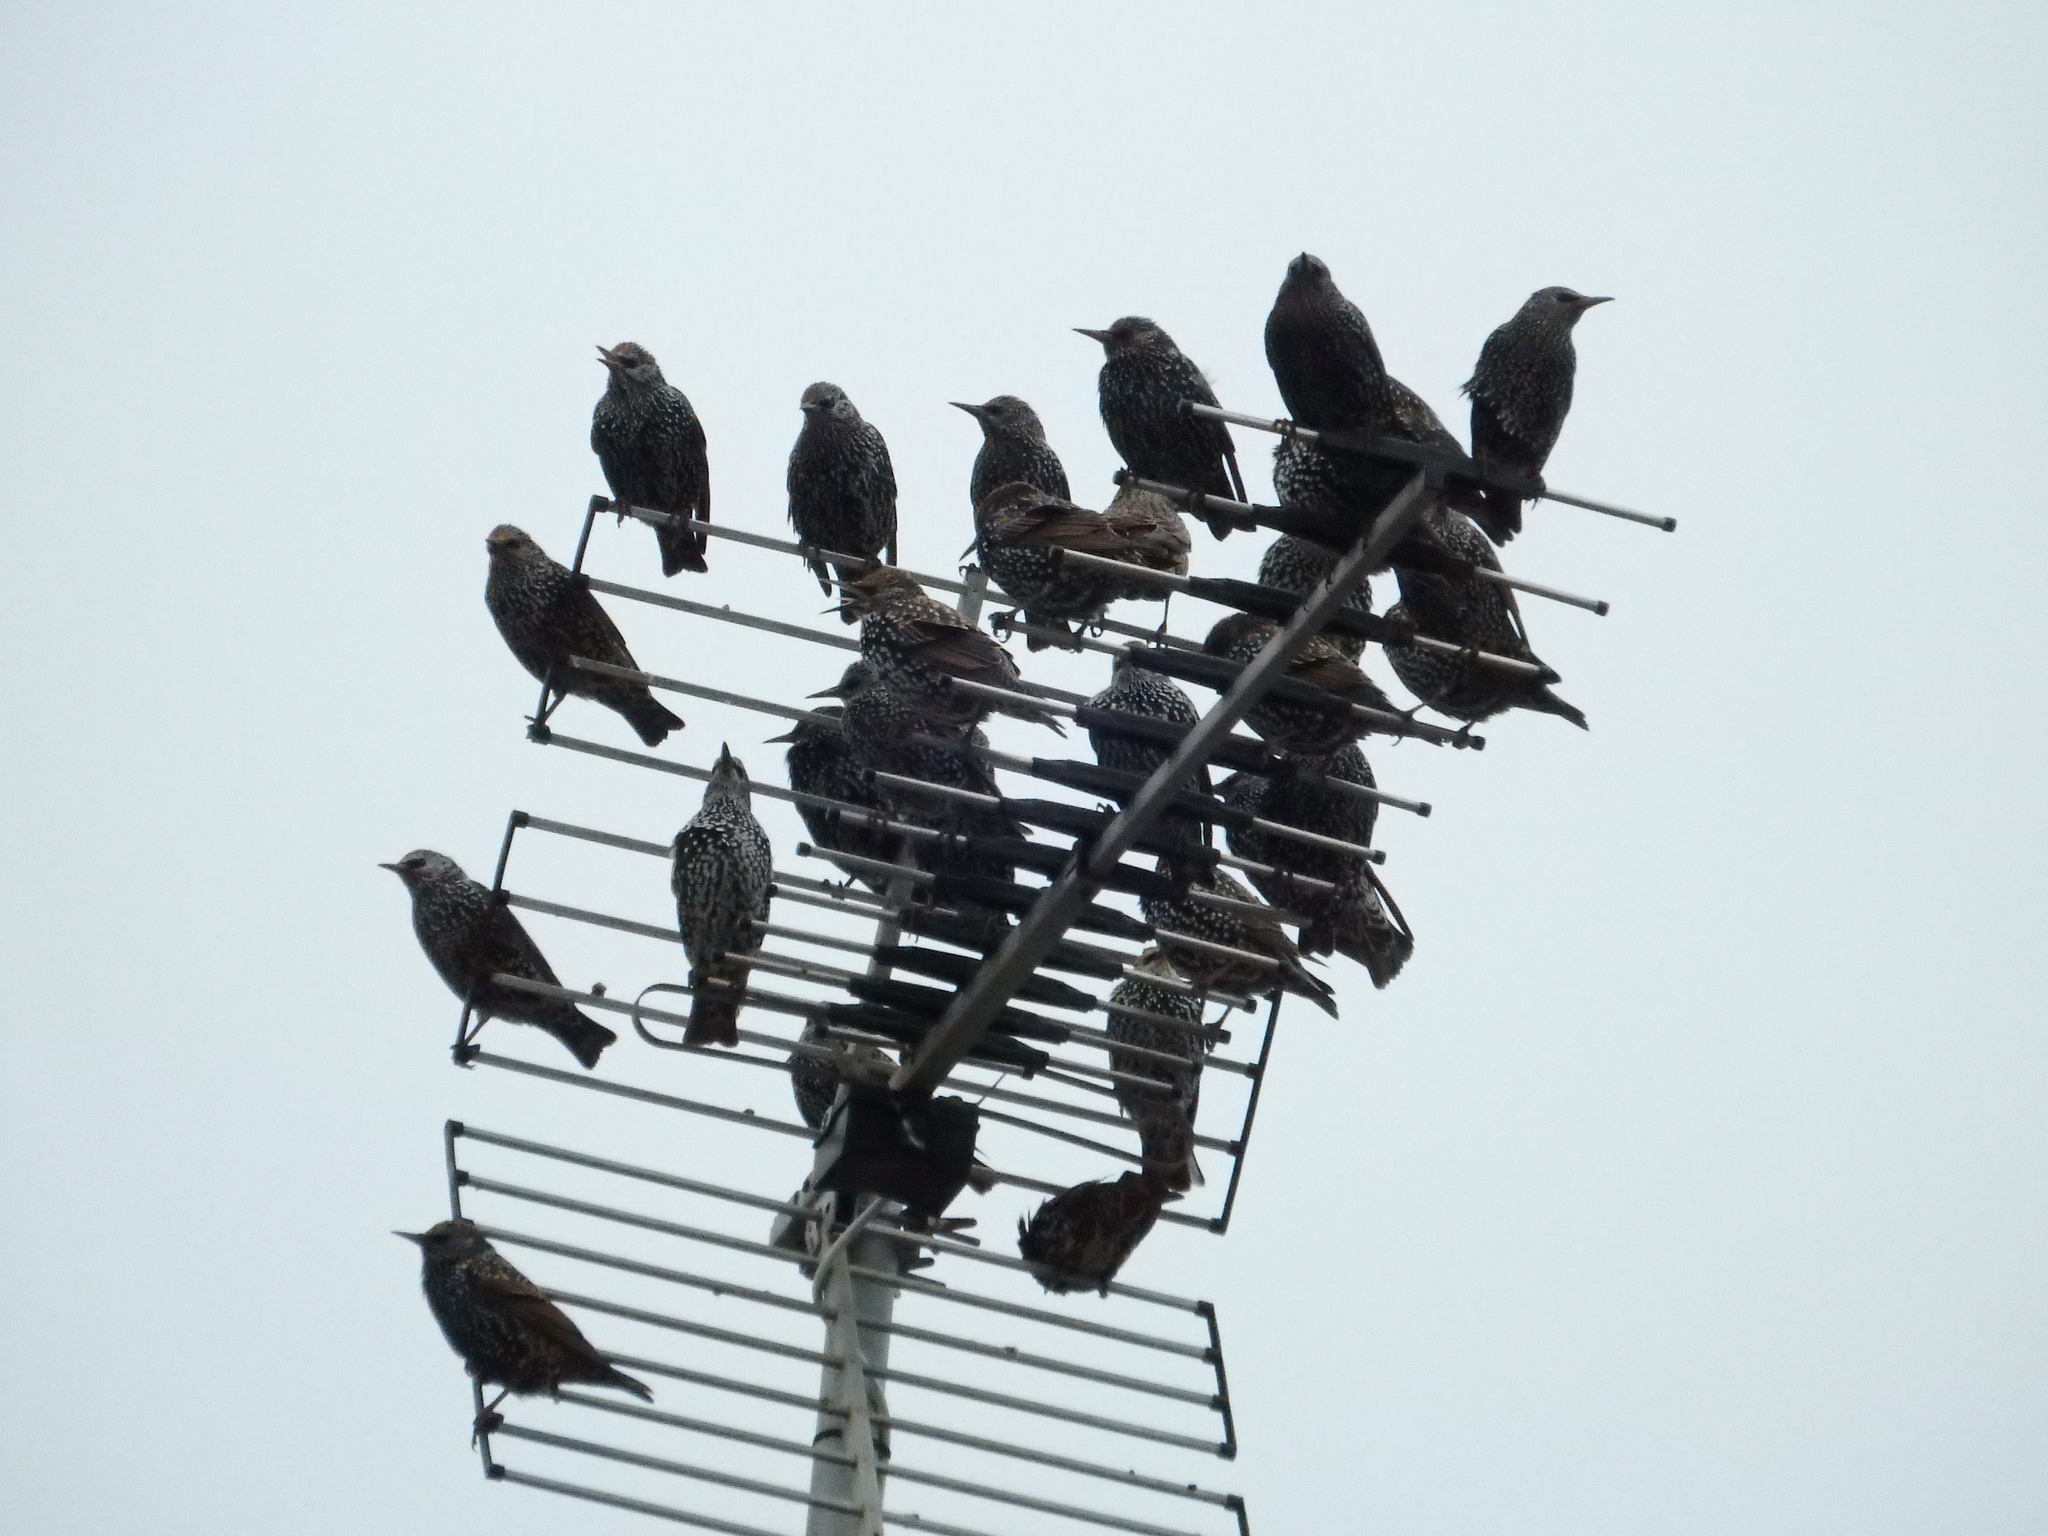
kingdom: Animalia
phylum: Chordata
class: Aves
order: Passeriformes
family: Sturnidae
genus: Sturnus
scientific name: Sturnus vulgaris
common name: Common starling
